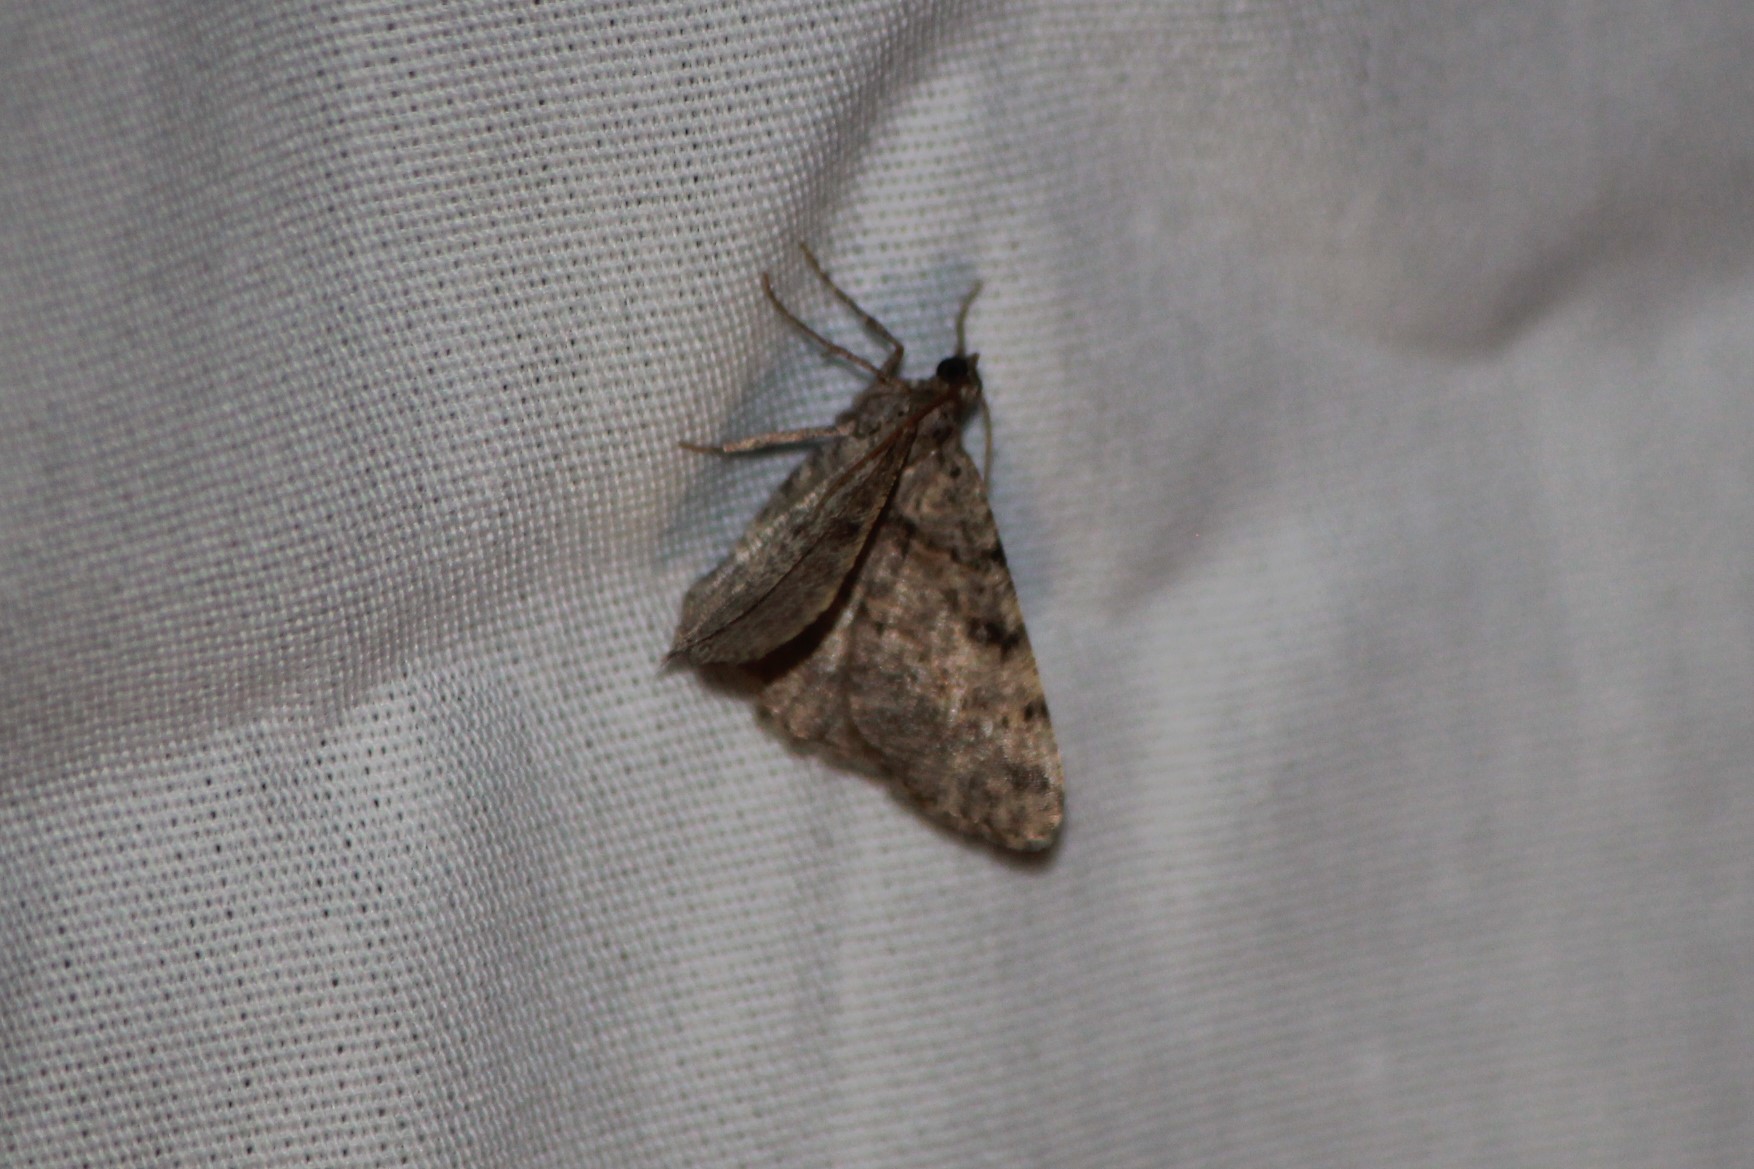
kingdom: Animalia
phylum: Arthropoda
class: Insecta
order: Lepidoptera
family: Geometridae
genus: Digrammia
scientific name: Digrammia gnophosaria
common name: Hollow-spotted angle
